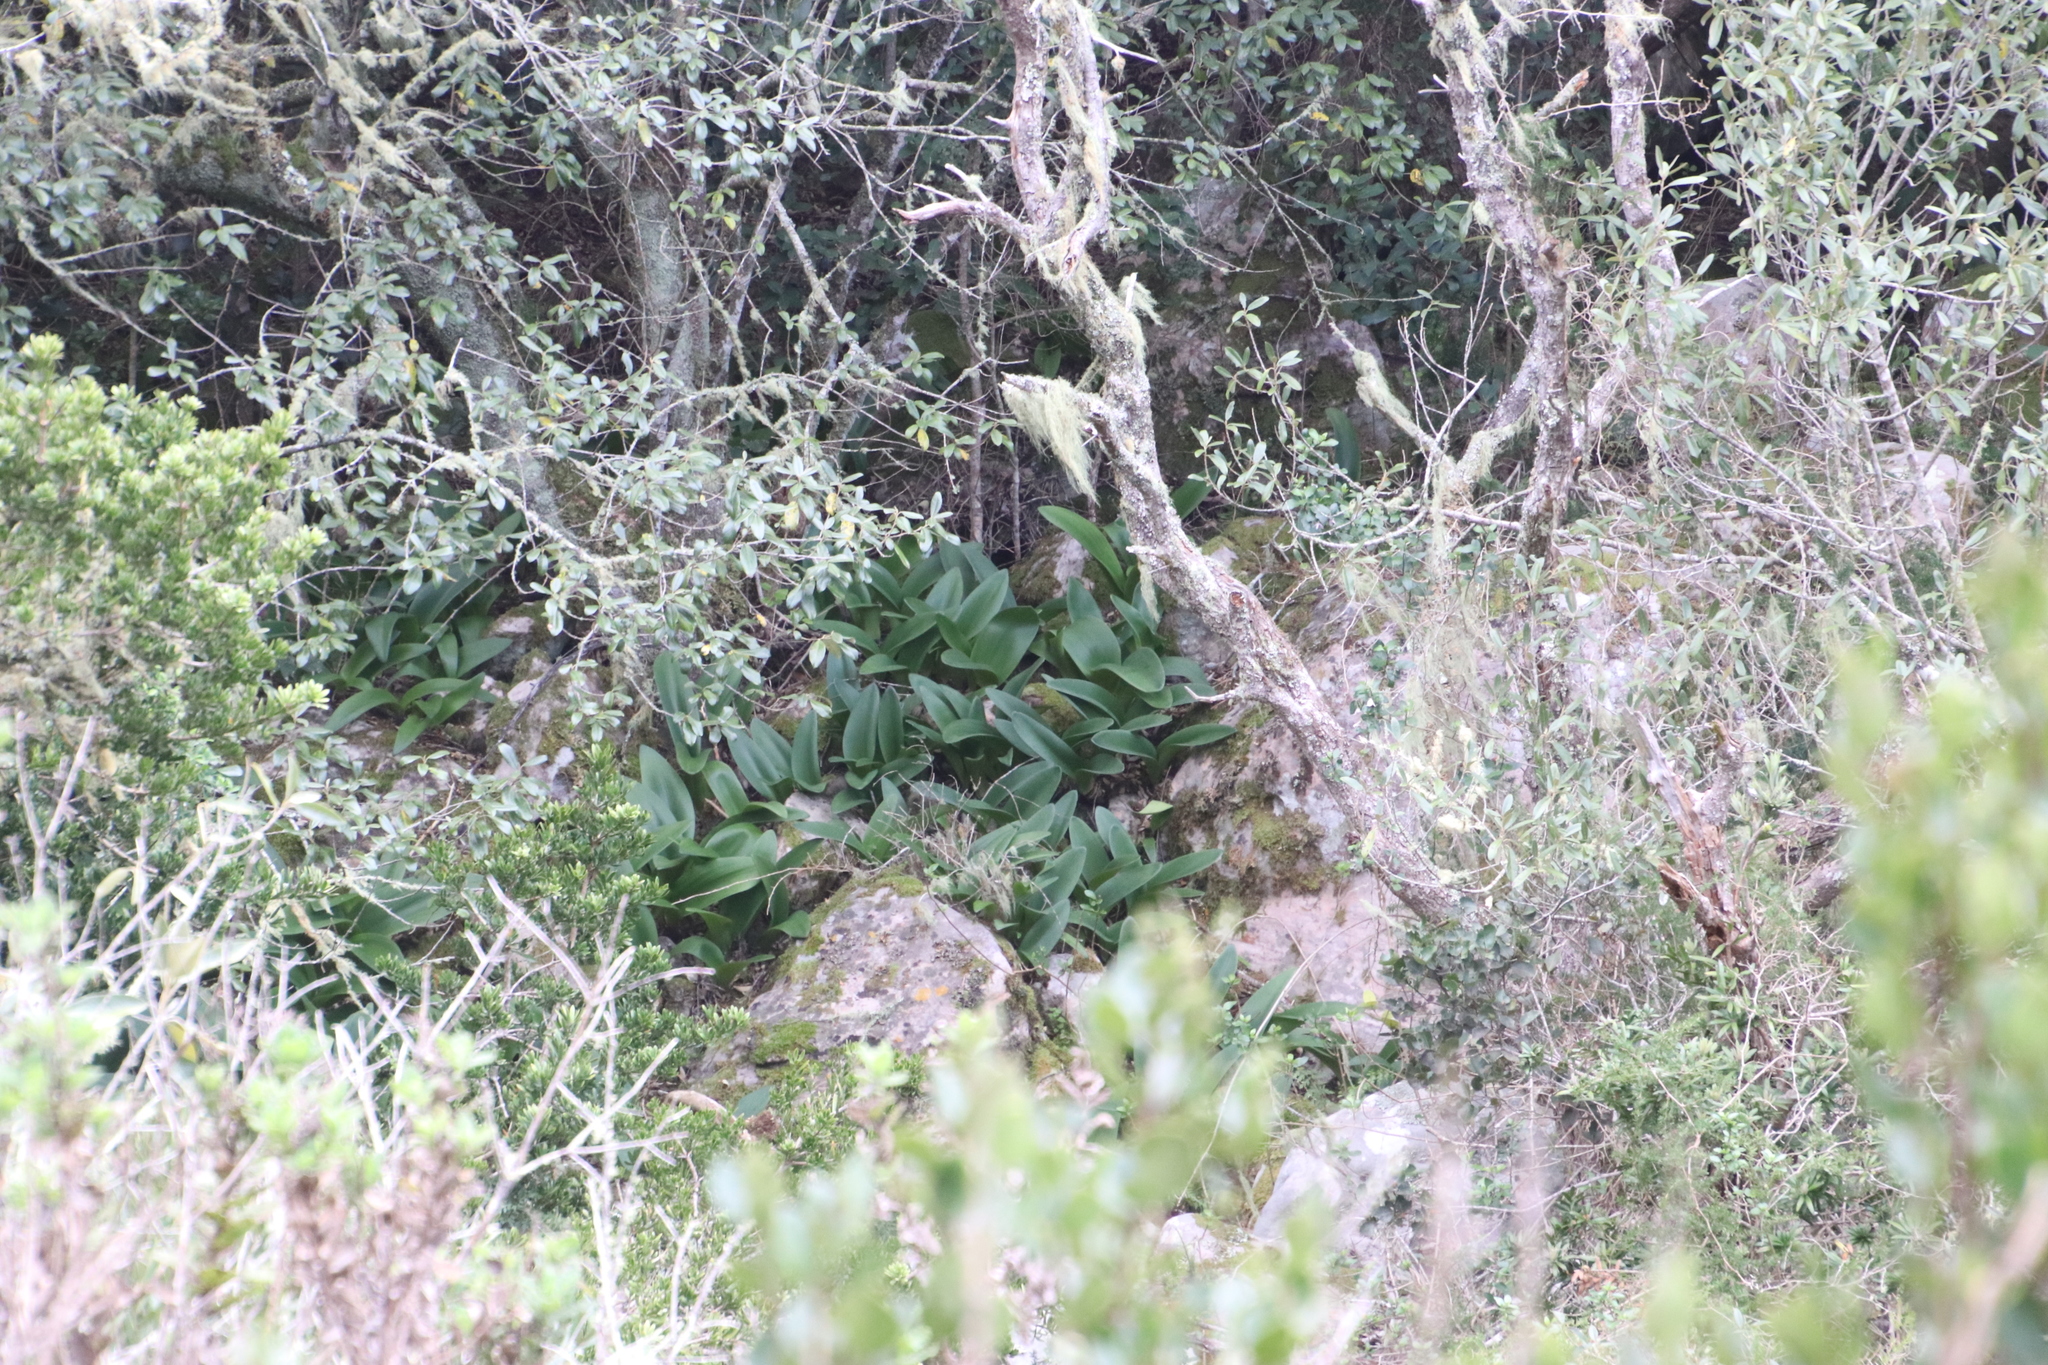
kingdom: Plantae
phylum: Tracheophyta
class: Liliopsida
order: Asparagales
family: Amaryllidaceae
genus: Haemanthus
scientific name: Haemanthus coccineus
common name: Cape-tulip
